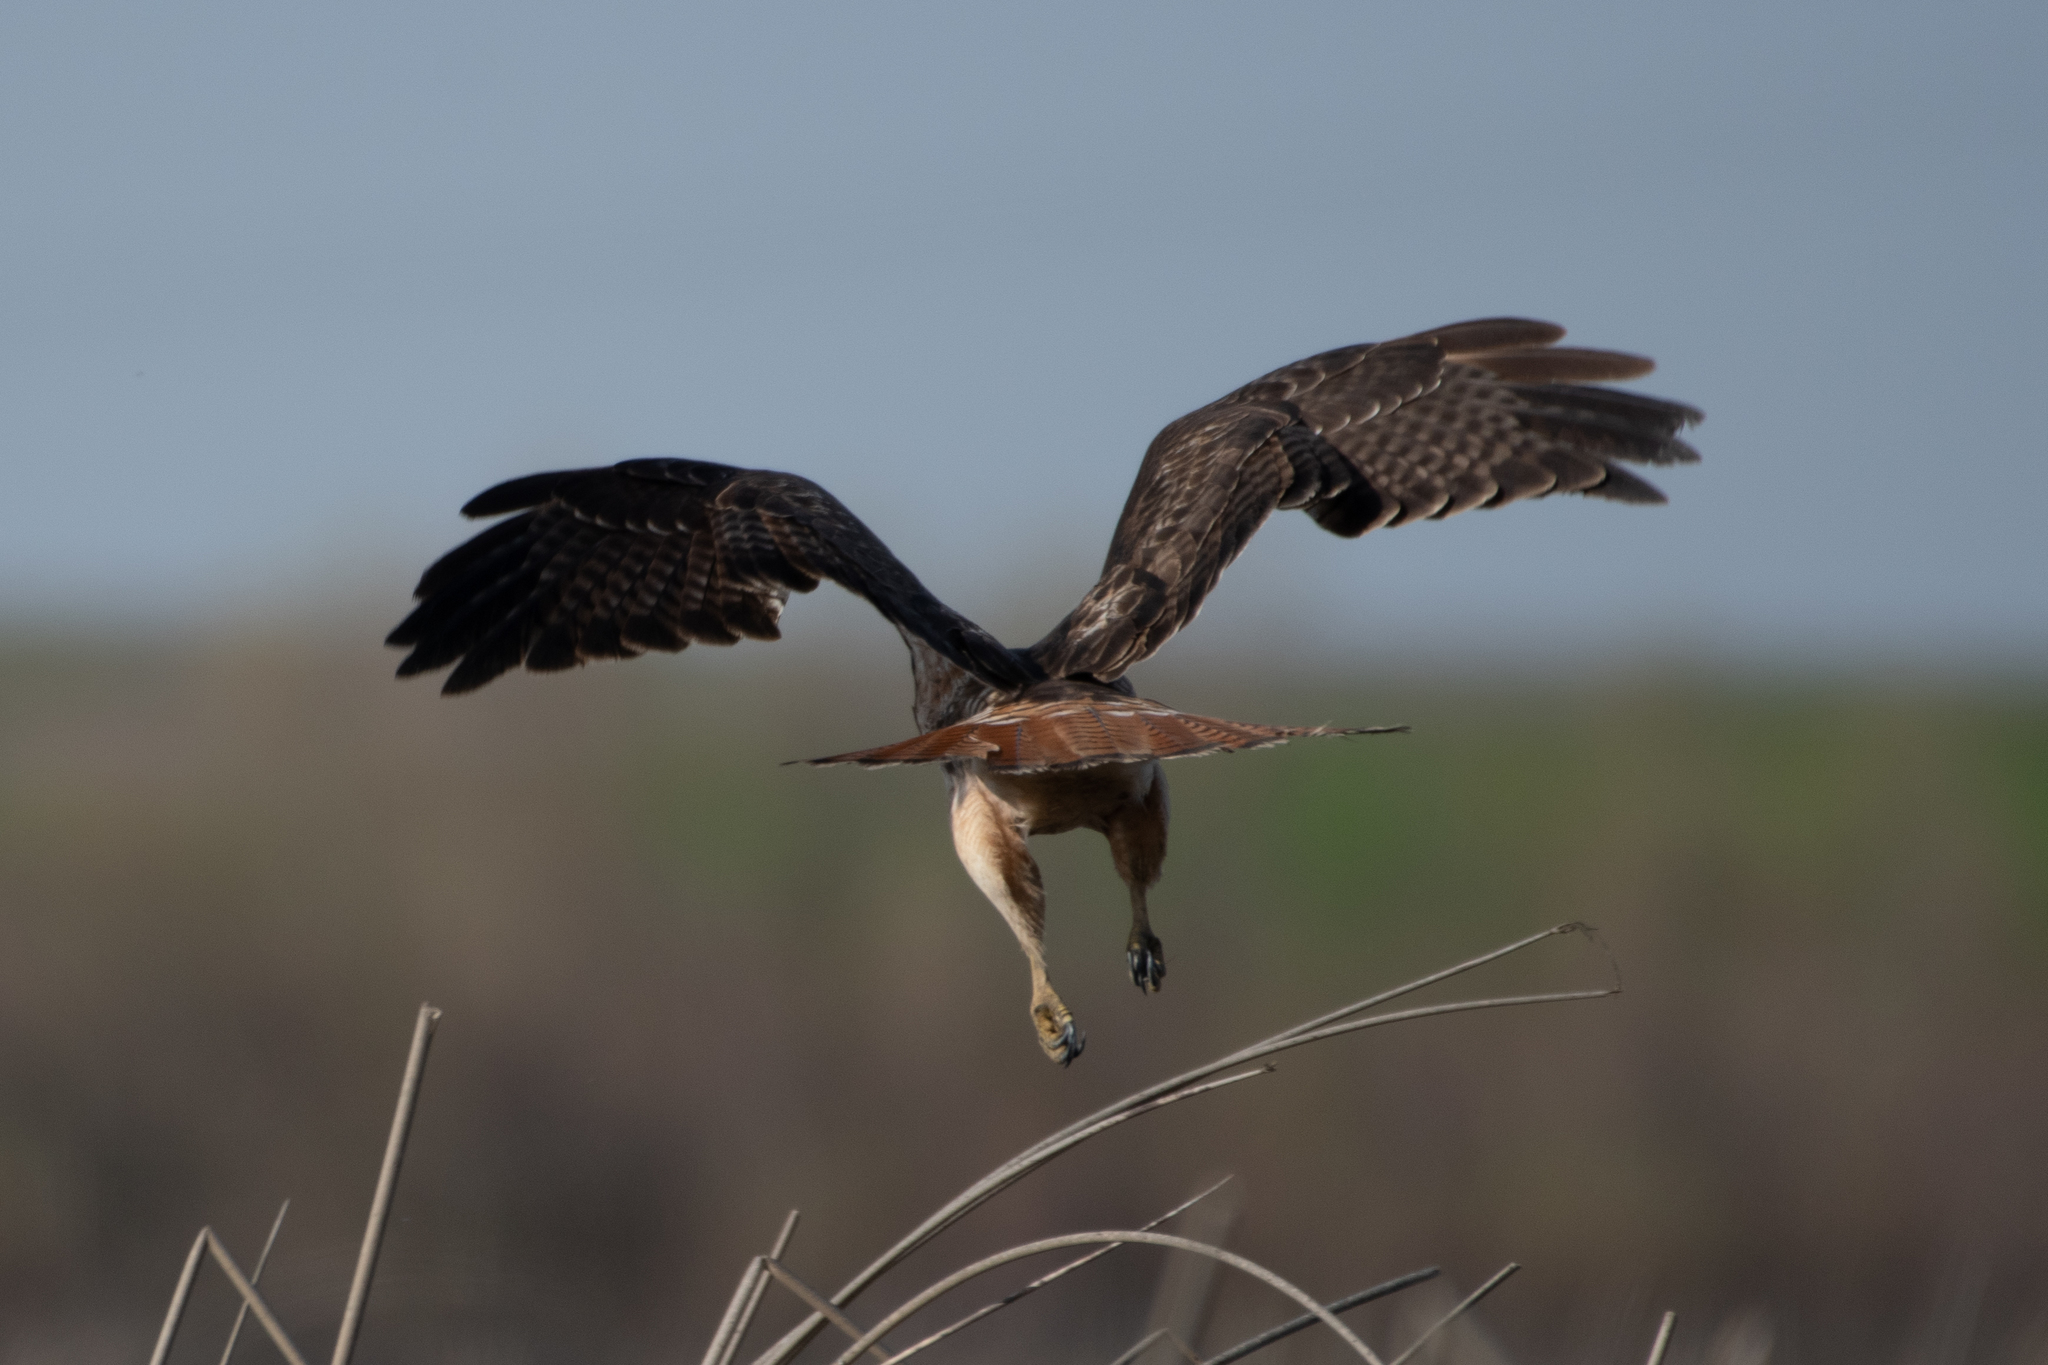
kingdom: Animalia
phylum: Chordata
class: Aves
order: Accipitriformes
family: Accipitridae
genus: Buteo
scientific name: Buteo jamaicensis
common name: Red-tailed hawk
